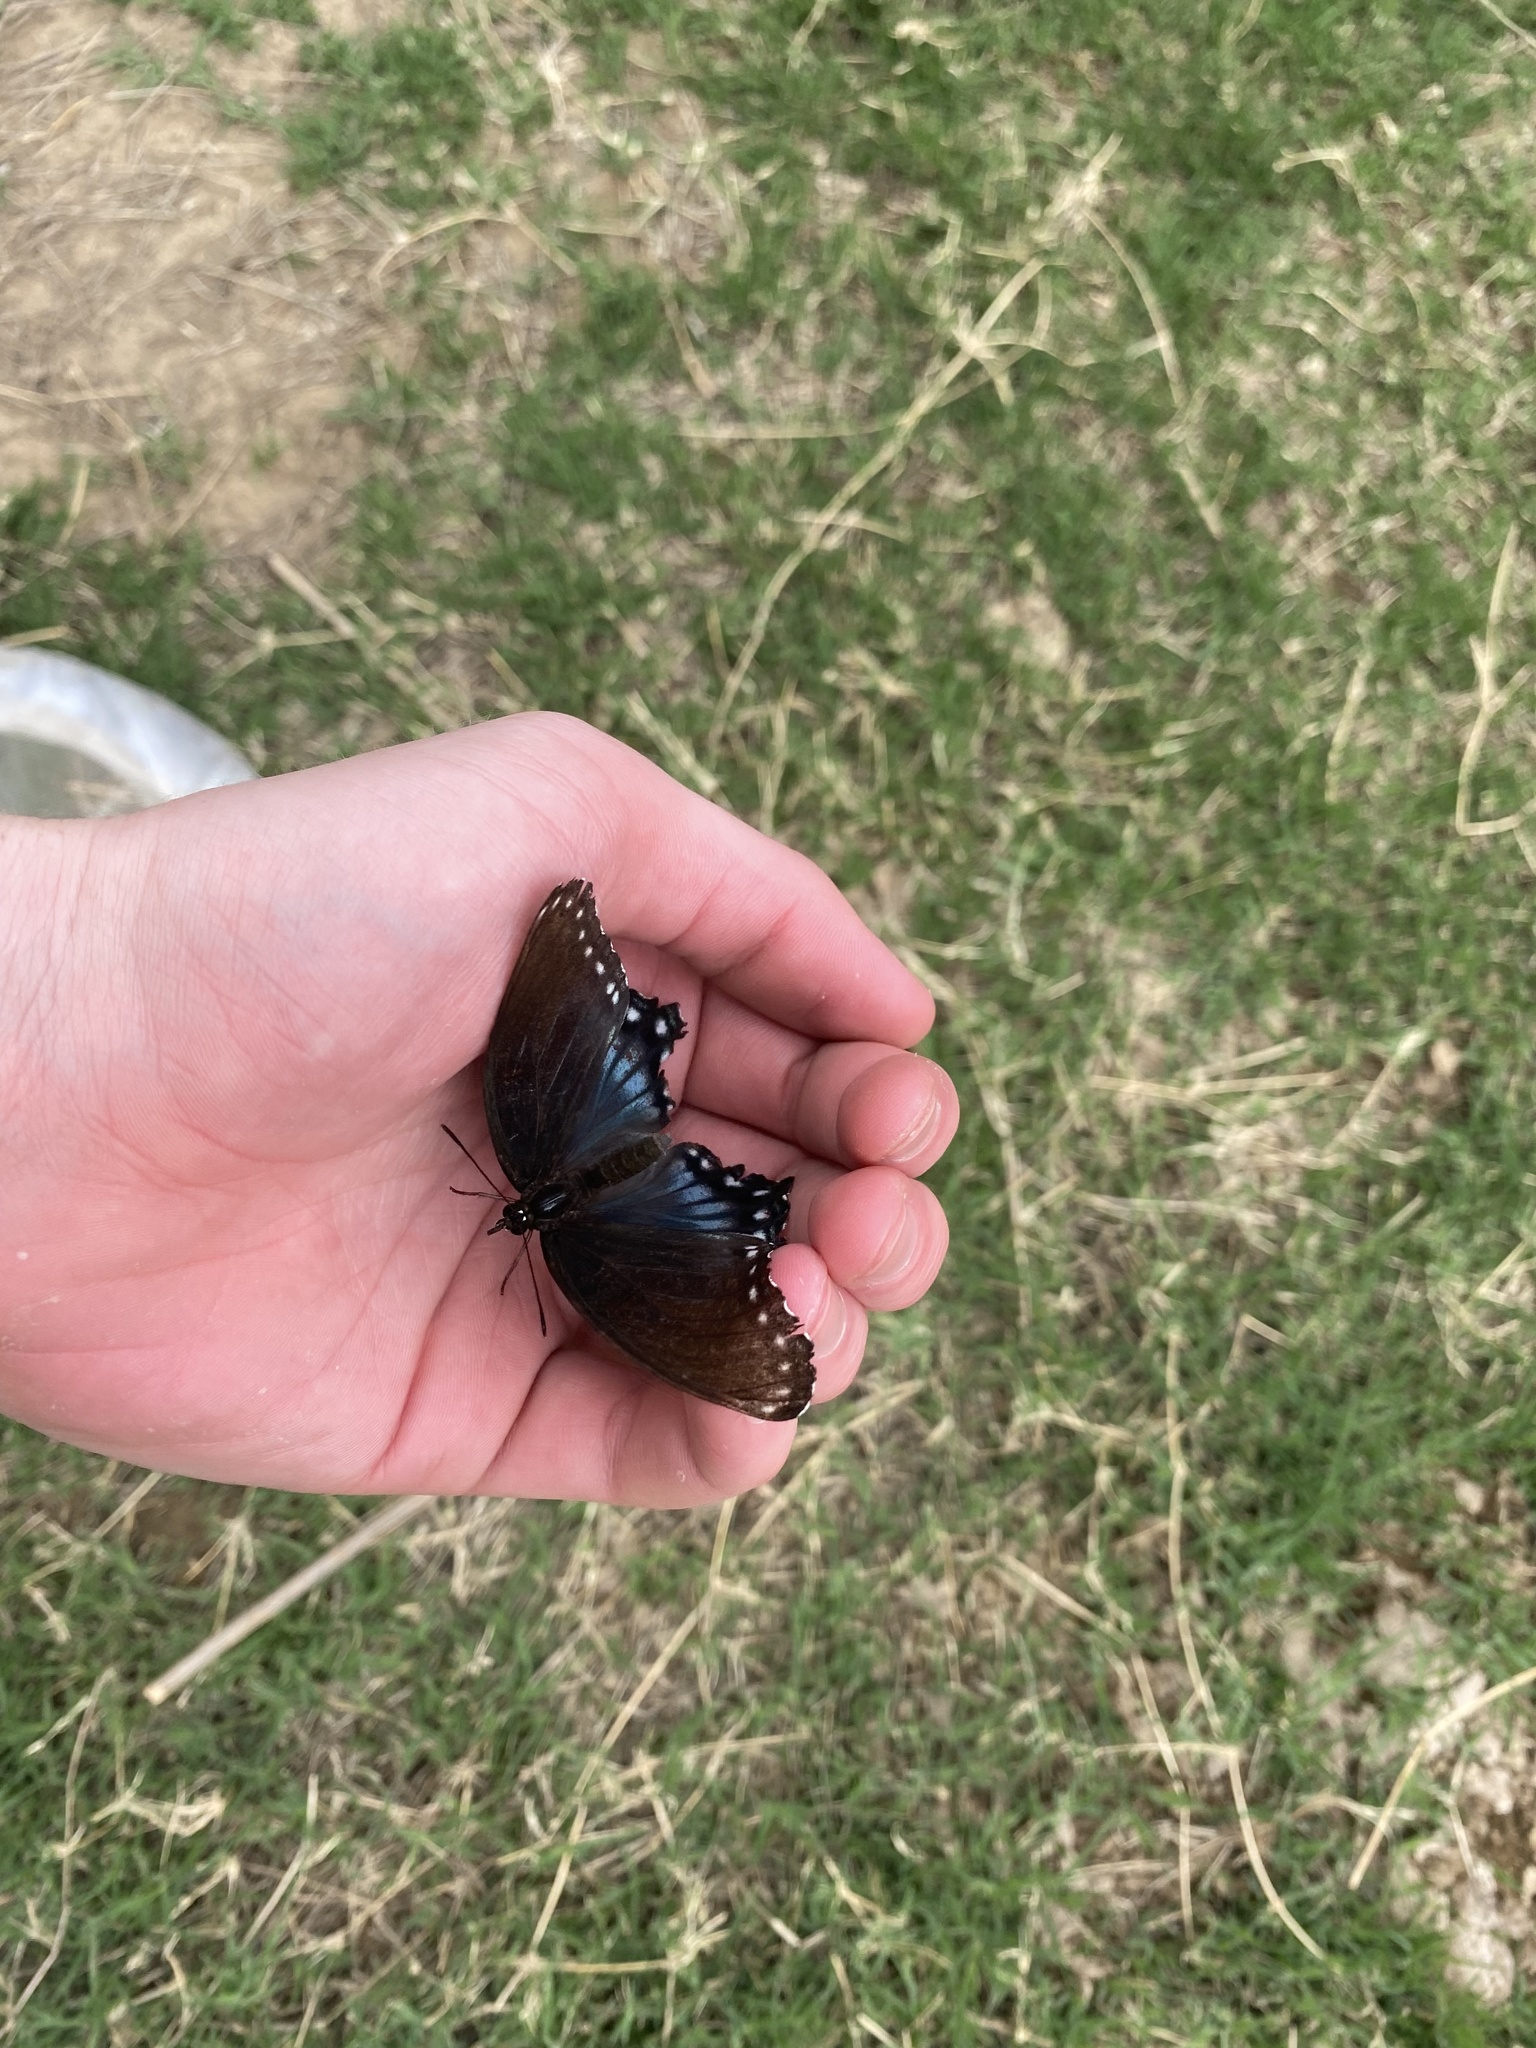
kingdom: Animalia
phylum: Arthropoda
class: Insecta
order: Lepidoptera
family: Nymphalidae
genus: Limenitis
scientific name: Limenitis arthemis
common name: Red-spotted admiral
